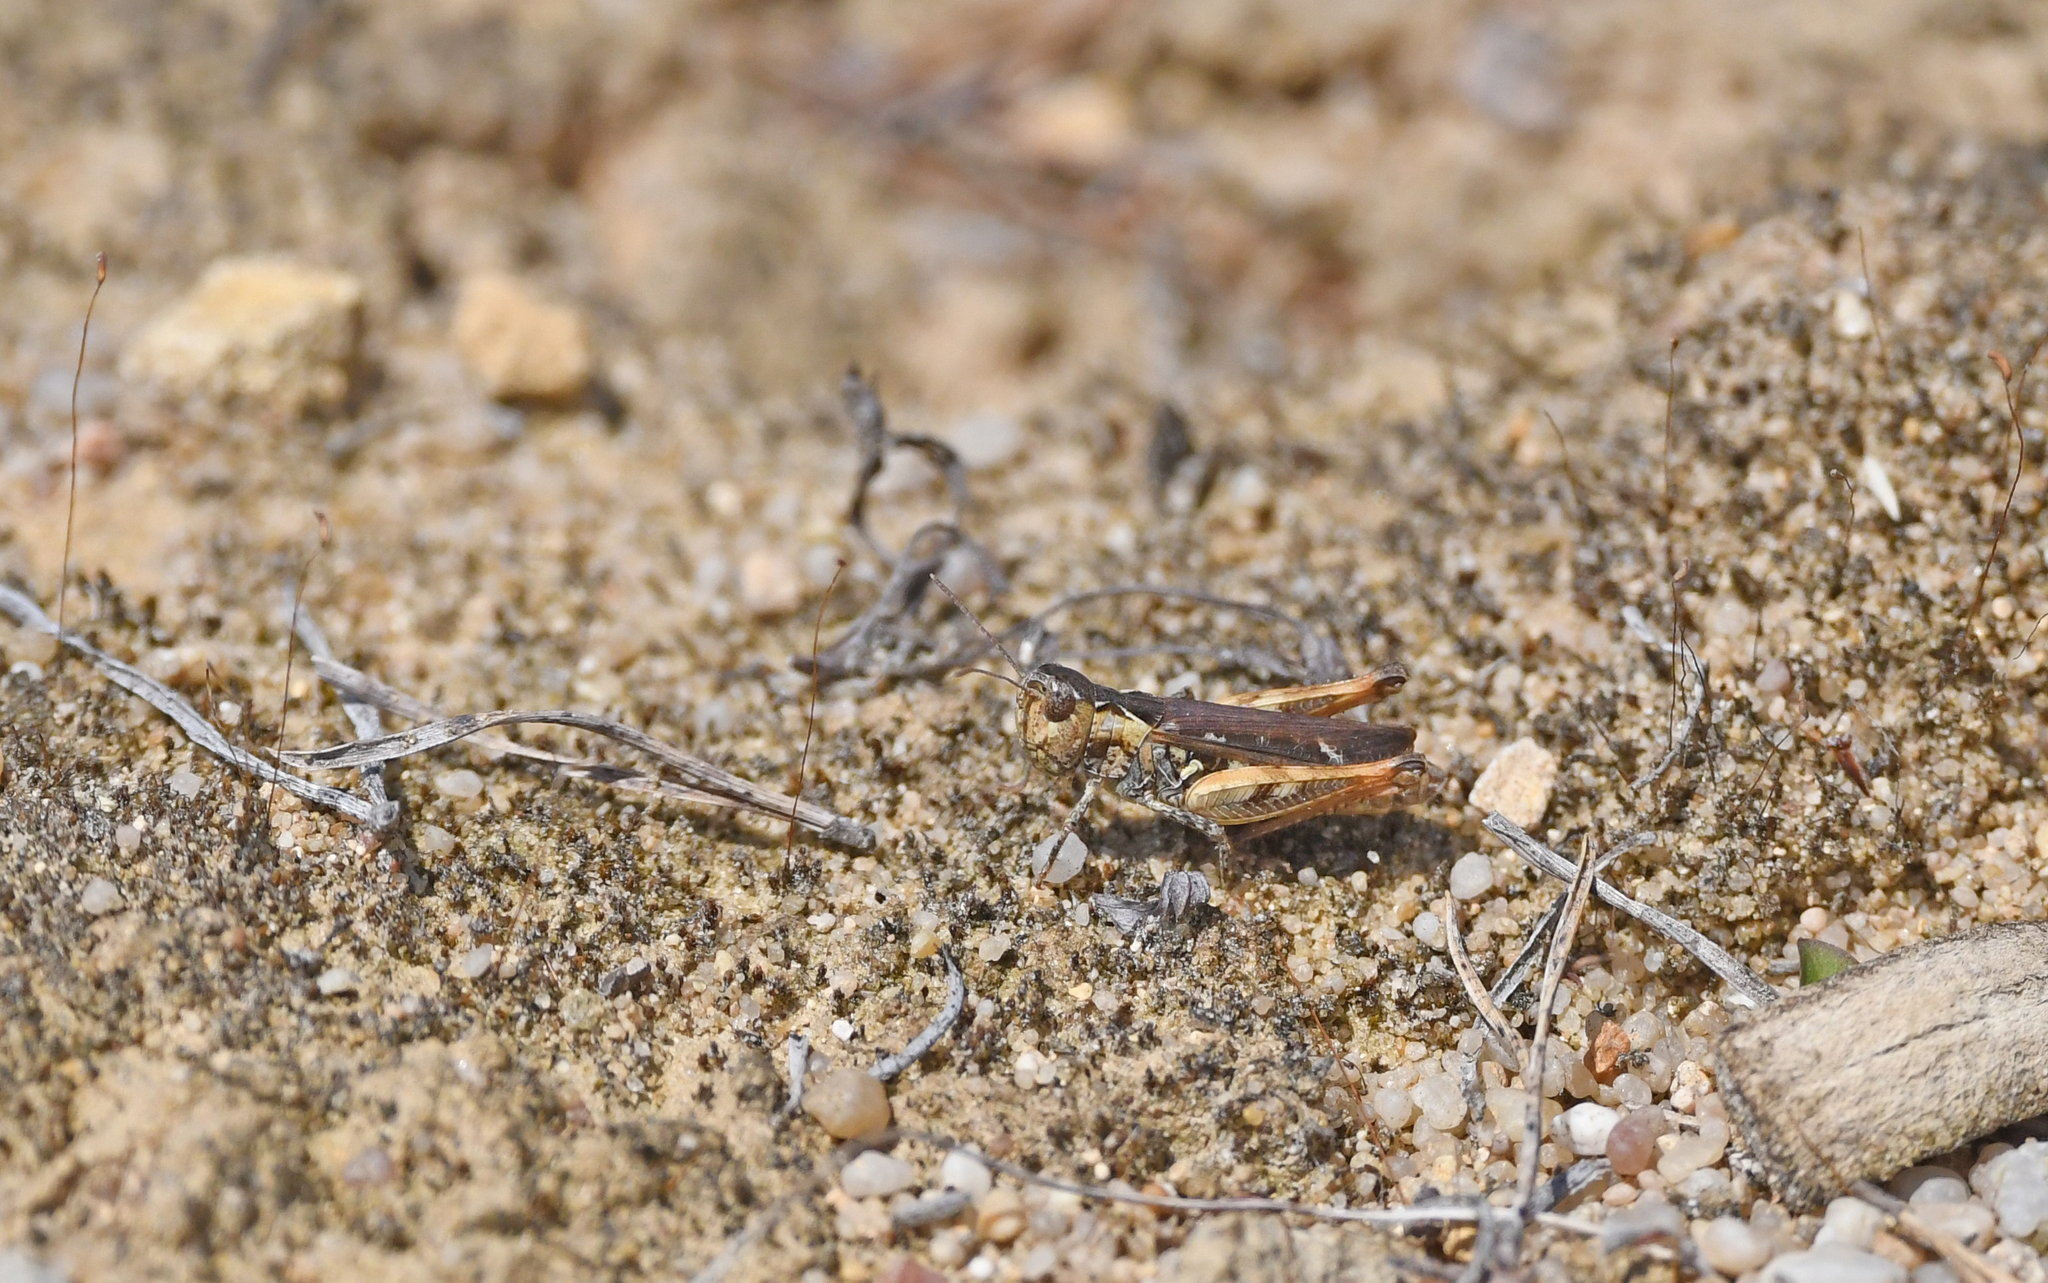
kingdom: Animalia
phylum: Arthropoda
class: Insecta
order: Orthoptera
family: Acrididae
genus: Myrmeleotettix
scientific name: Myrmeleotettix maculatus
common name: Mottled grasshopper
